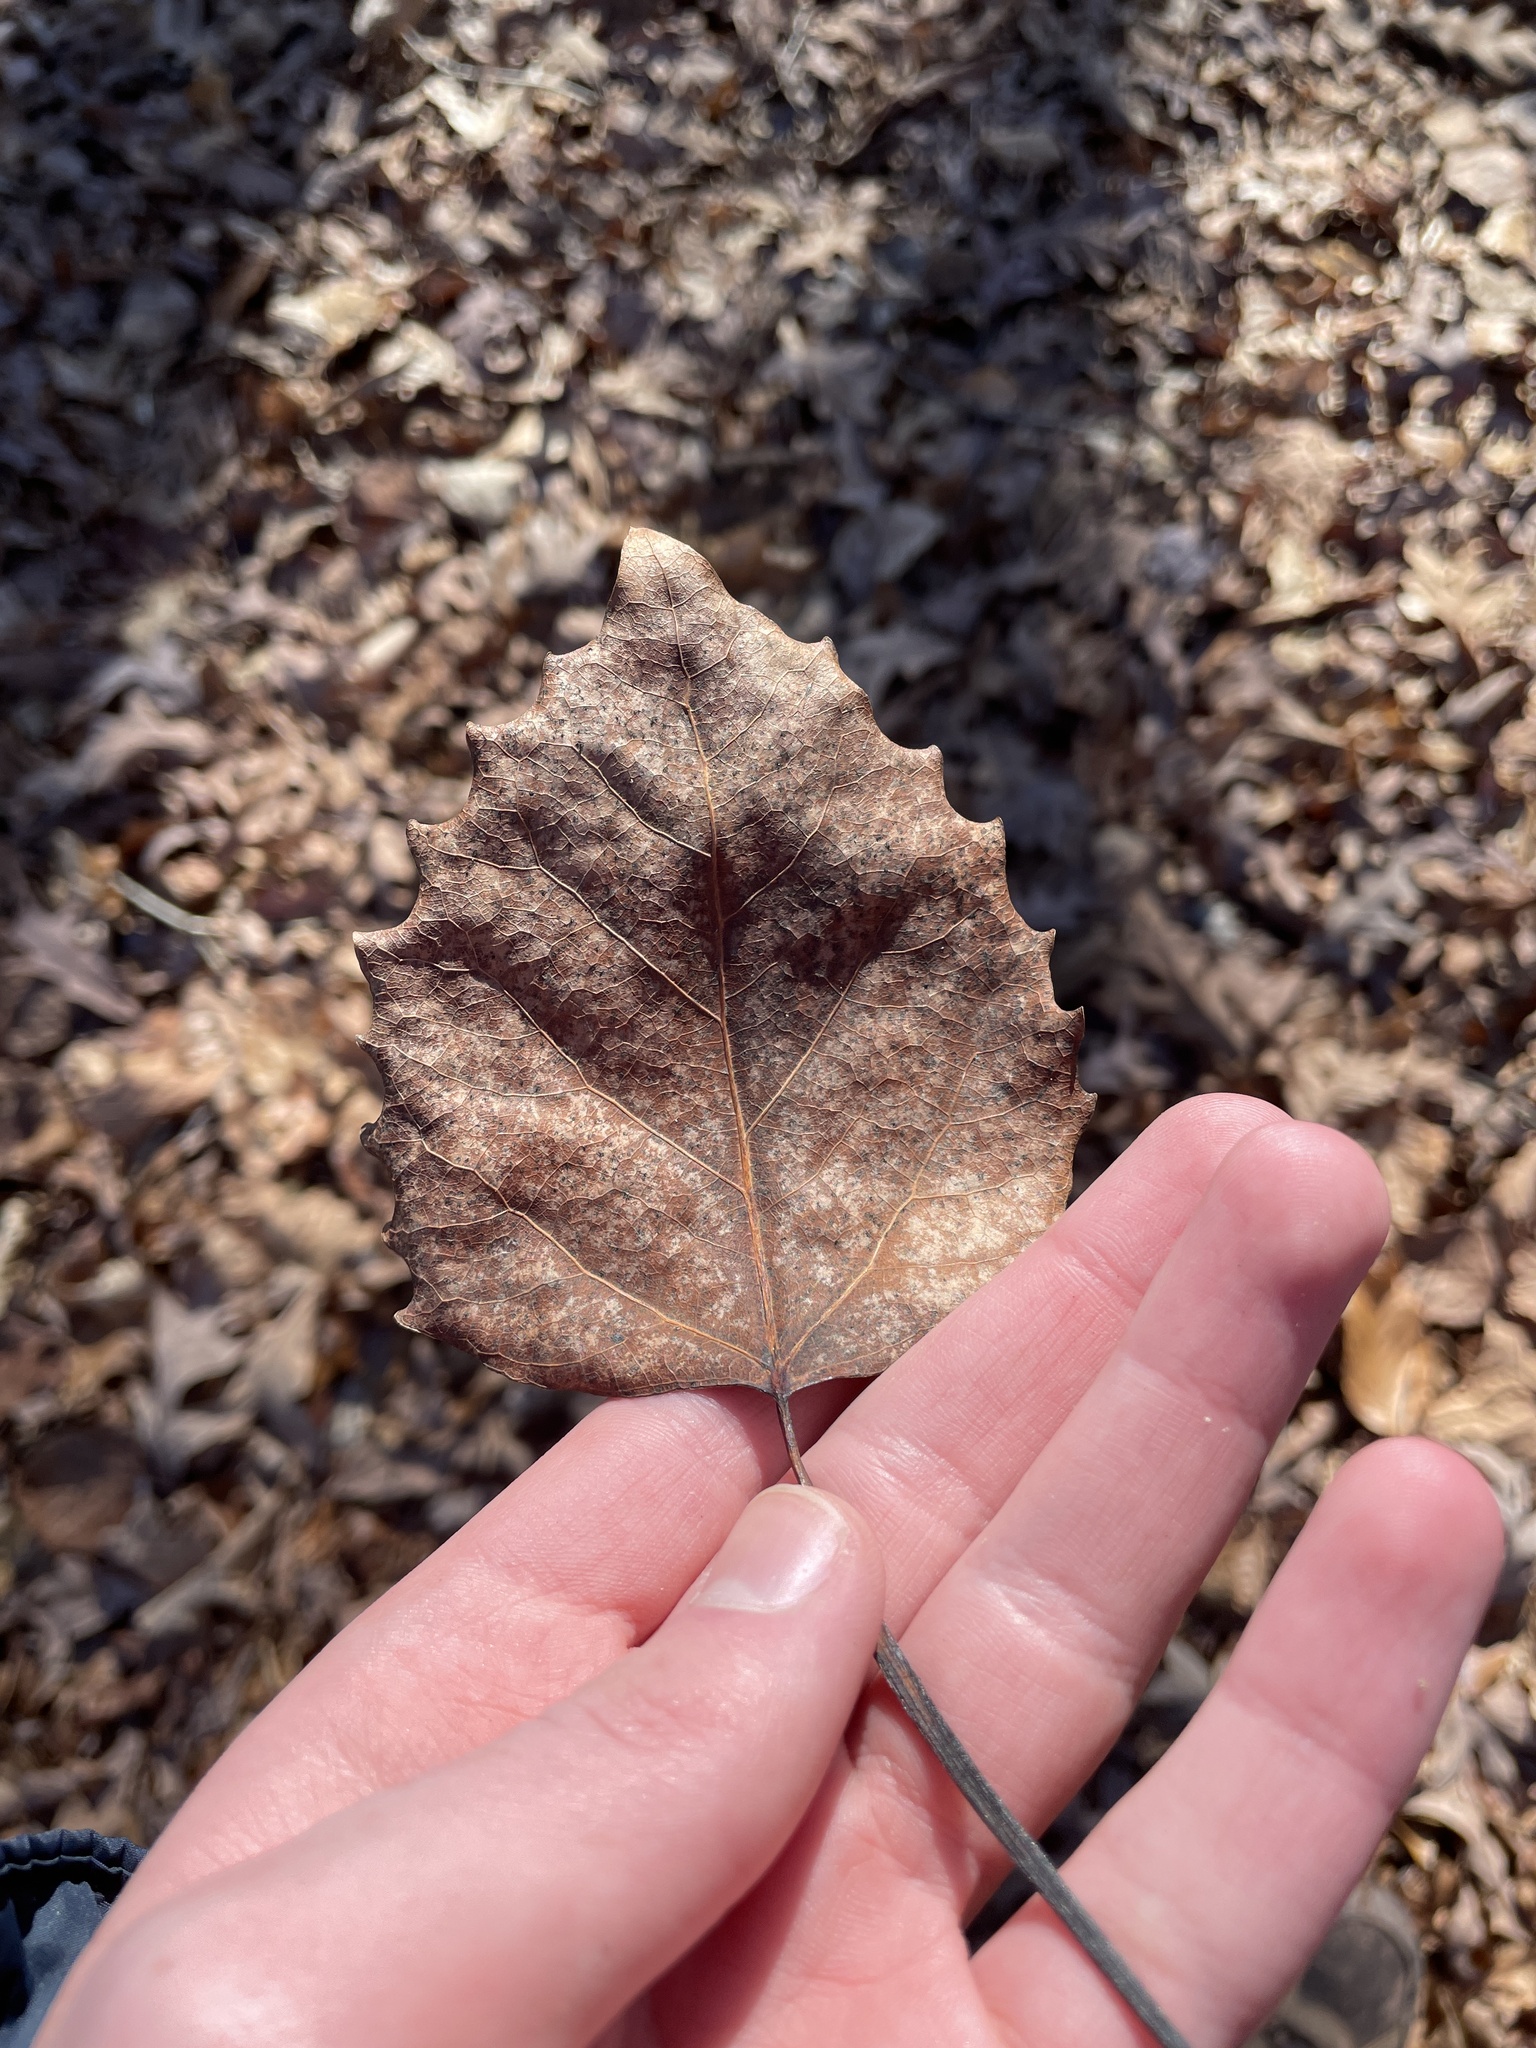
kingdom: Plantae
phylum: Tracheophyta
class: Magnoliopsida
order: Malpighiales
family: Salicaceae
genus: Populus
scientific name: Populus grandidentata
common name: Bigtooth aspen
